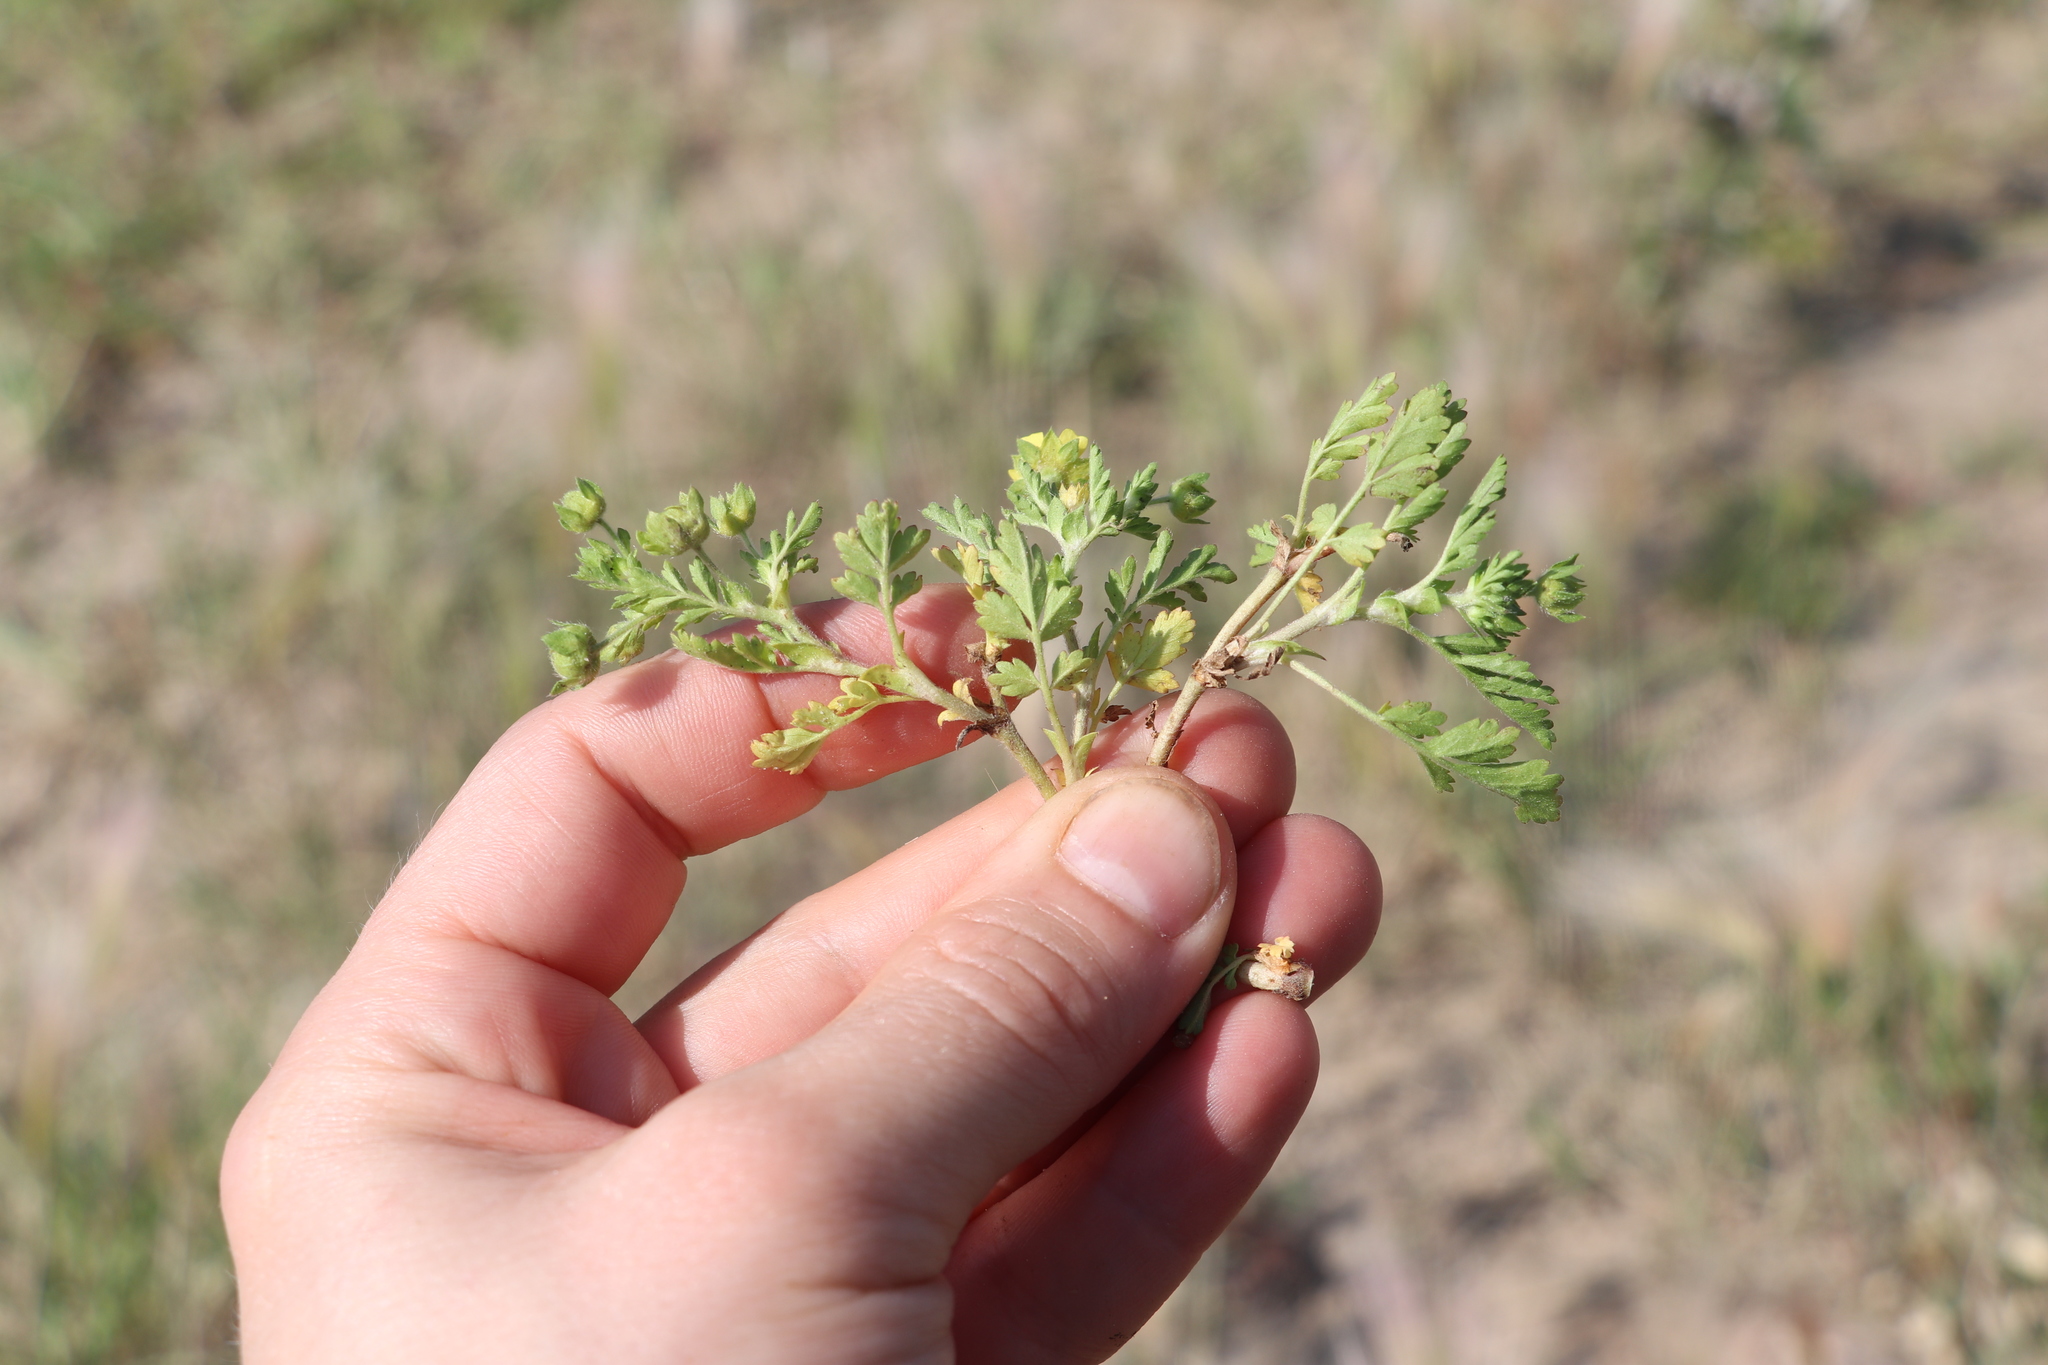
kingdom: Plantae
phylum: Tracheophyta
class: Magnoliopsida
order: Rosales
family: Rosaceae
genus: Potentilla
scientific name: Potentilla supina
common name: Prostrate cinquefoil
